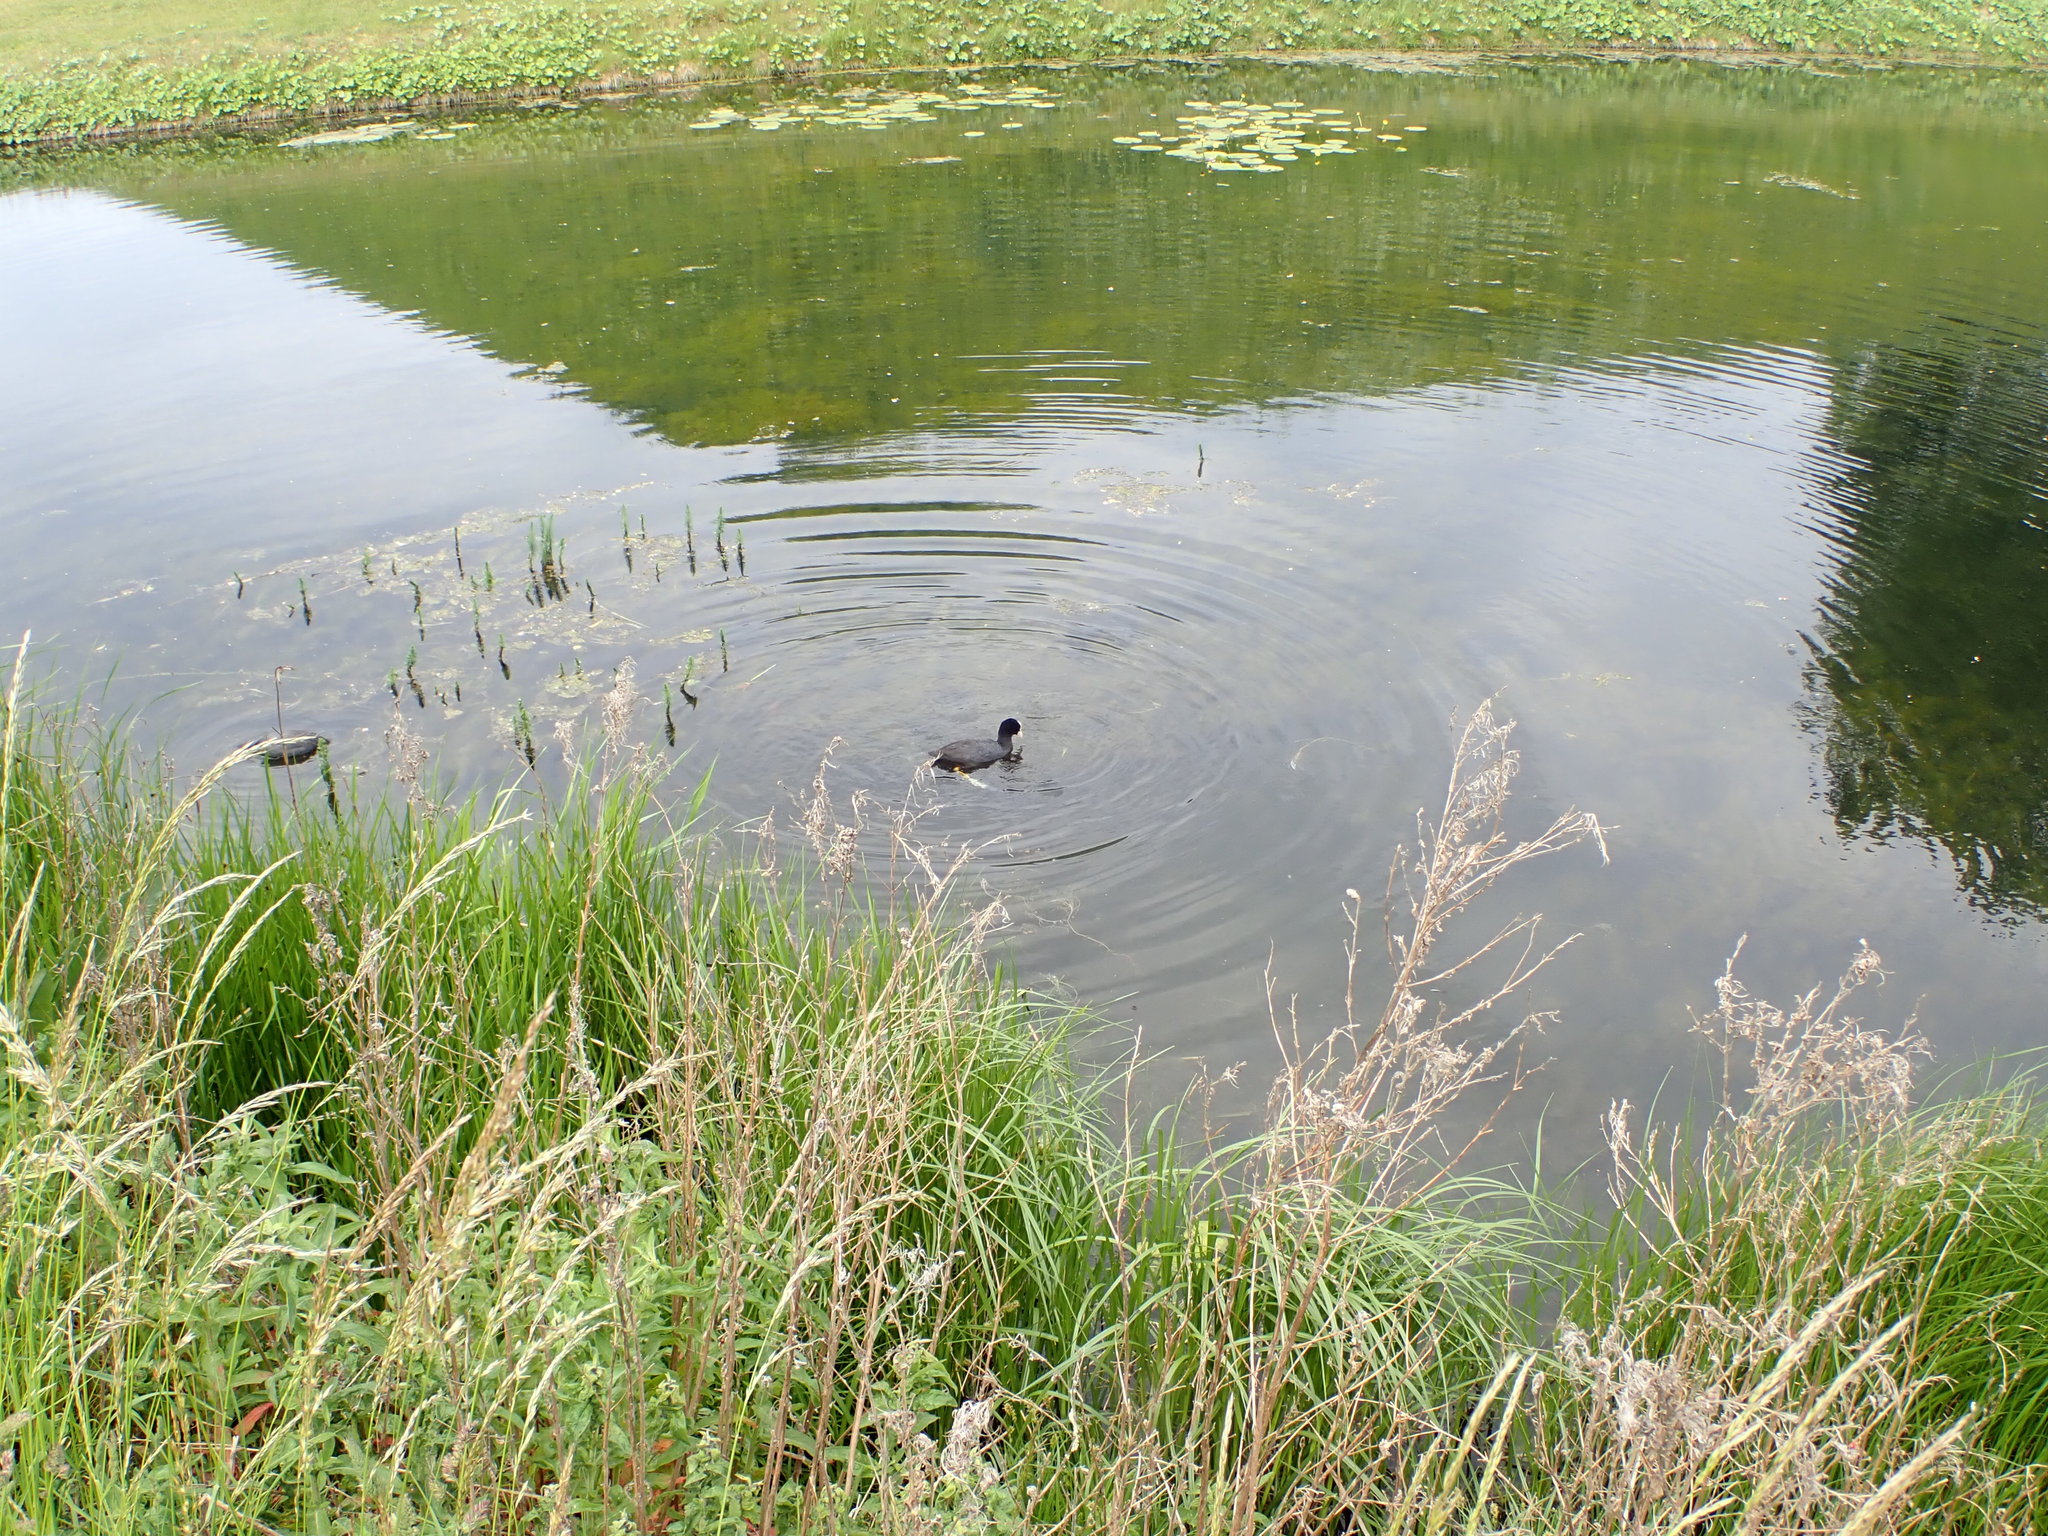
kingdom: Animalia
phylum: Chordata
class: Aves
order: Gruiformes
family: Rallidae
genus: Fulica
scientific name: Fulica atra
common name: Eurasian coot
